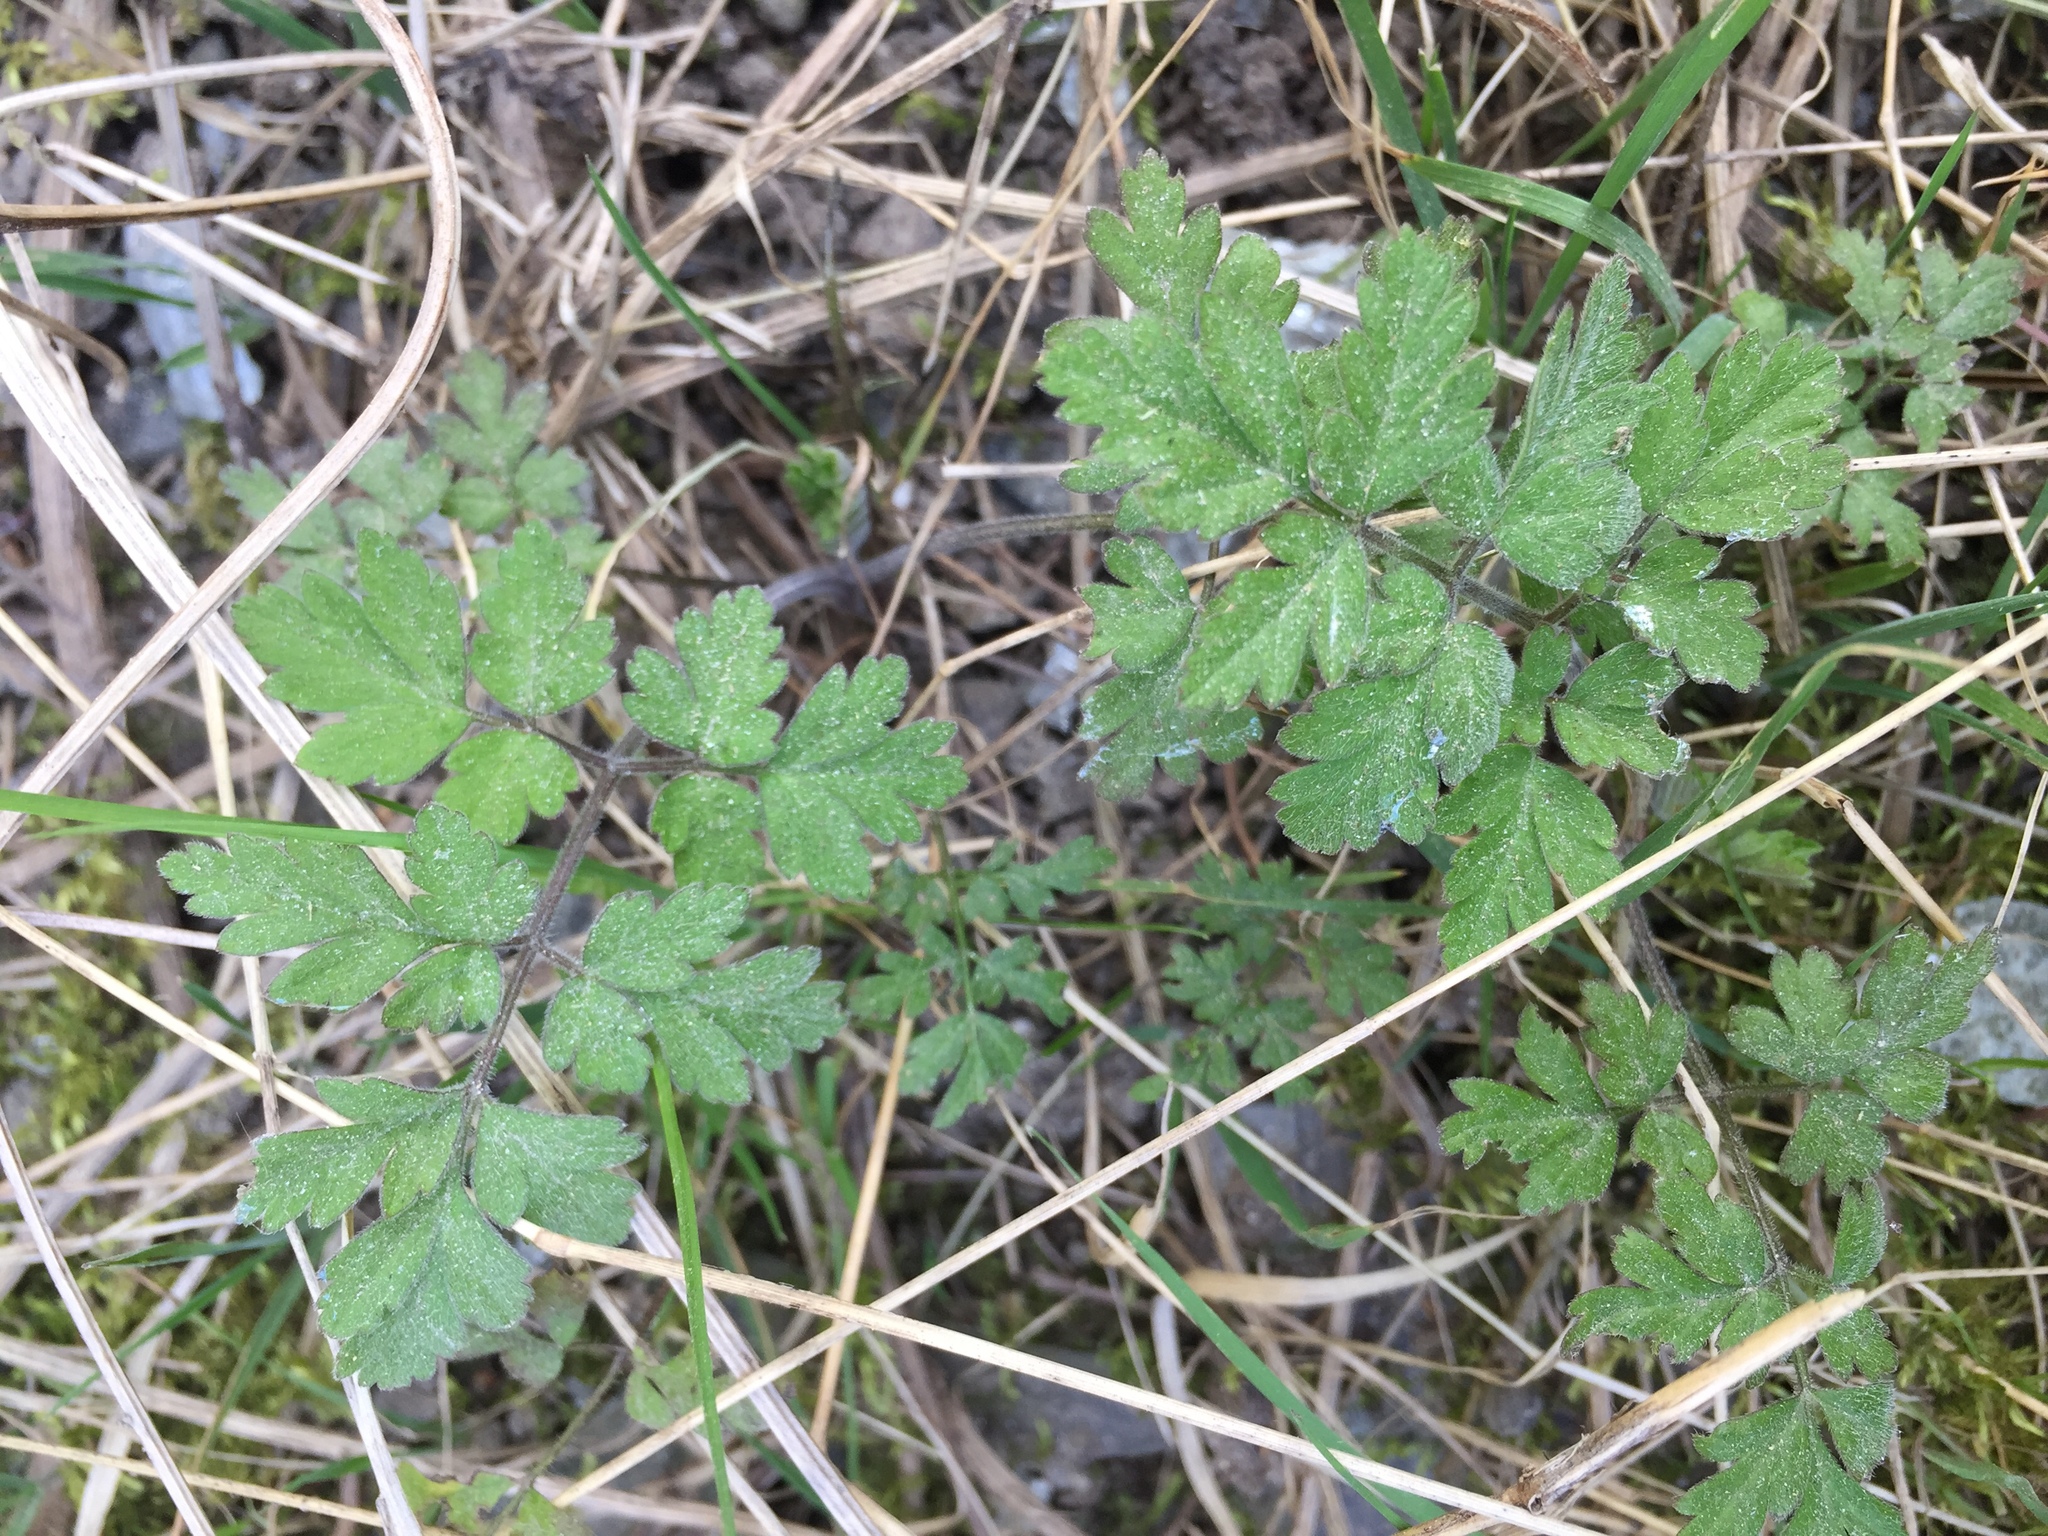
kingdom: Plantae
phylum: Tracheophyta
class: Magnoliopsida
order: Apiales
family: Apiaceae
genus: Chaerophyllum
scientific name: Chaerophyllum temulum
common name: Rough chervil
